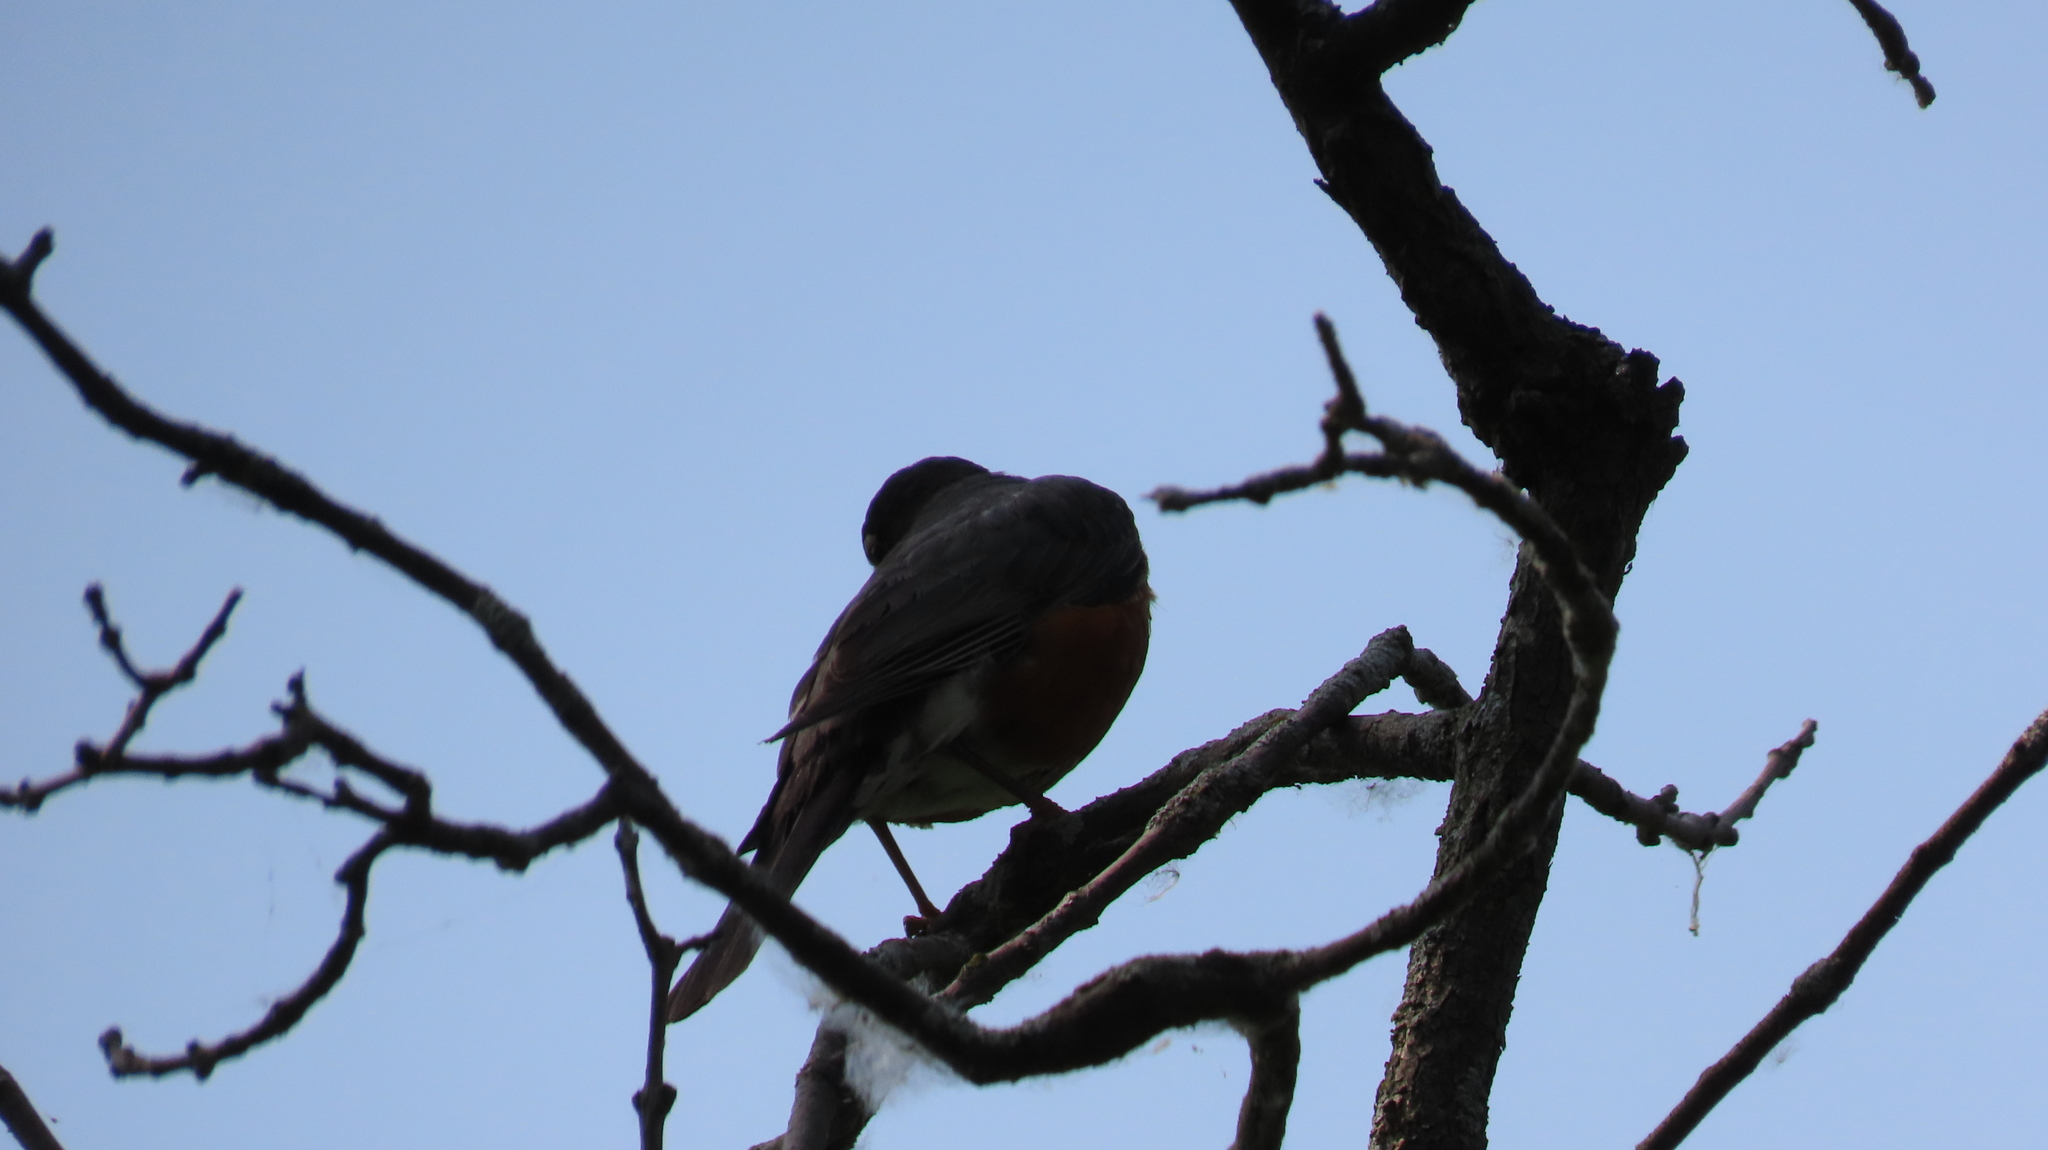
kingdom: Animalia
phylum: Chordata
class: Aves
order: Passeriformes
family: Turdidae
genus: Turdus
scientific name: Turdus migratorius
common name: American robin
